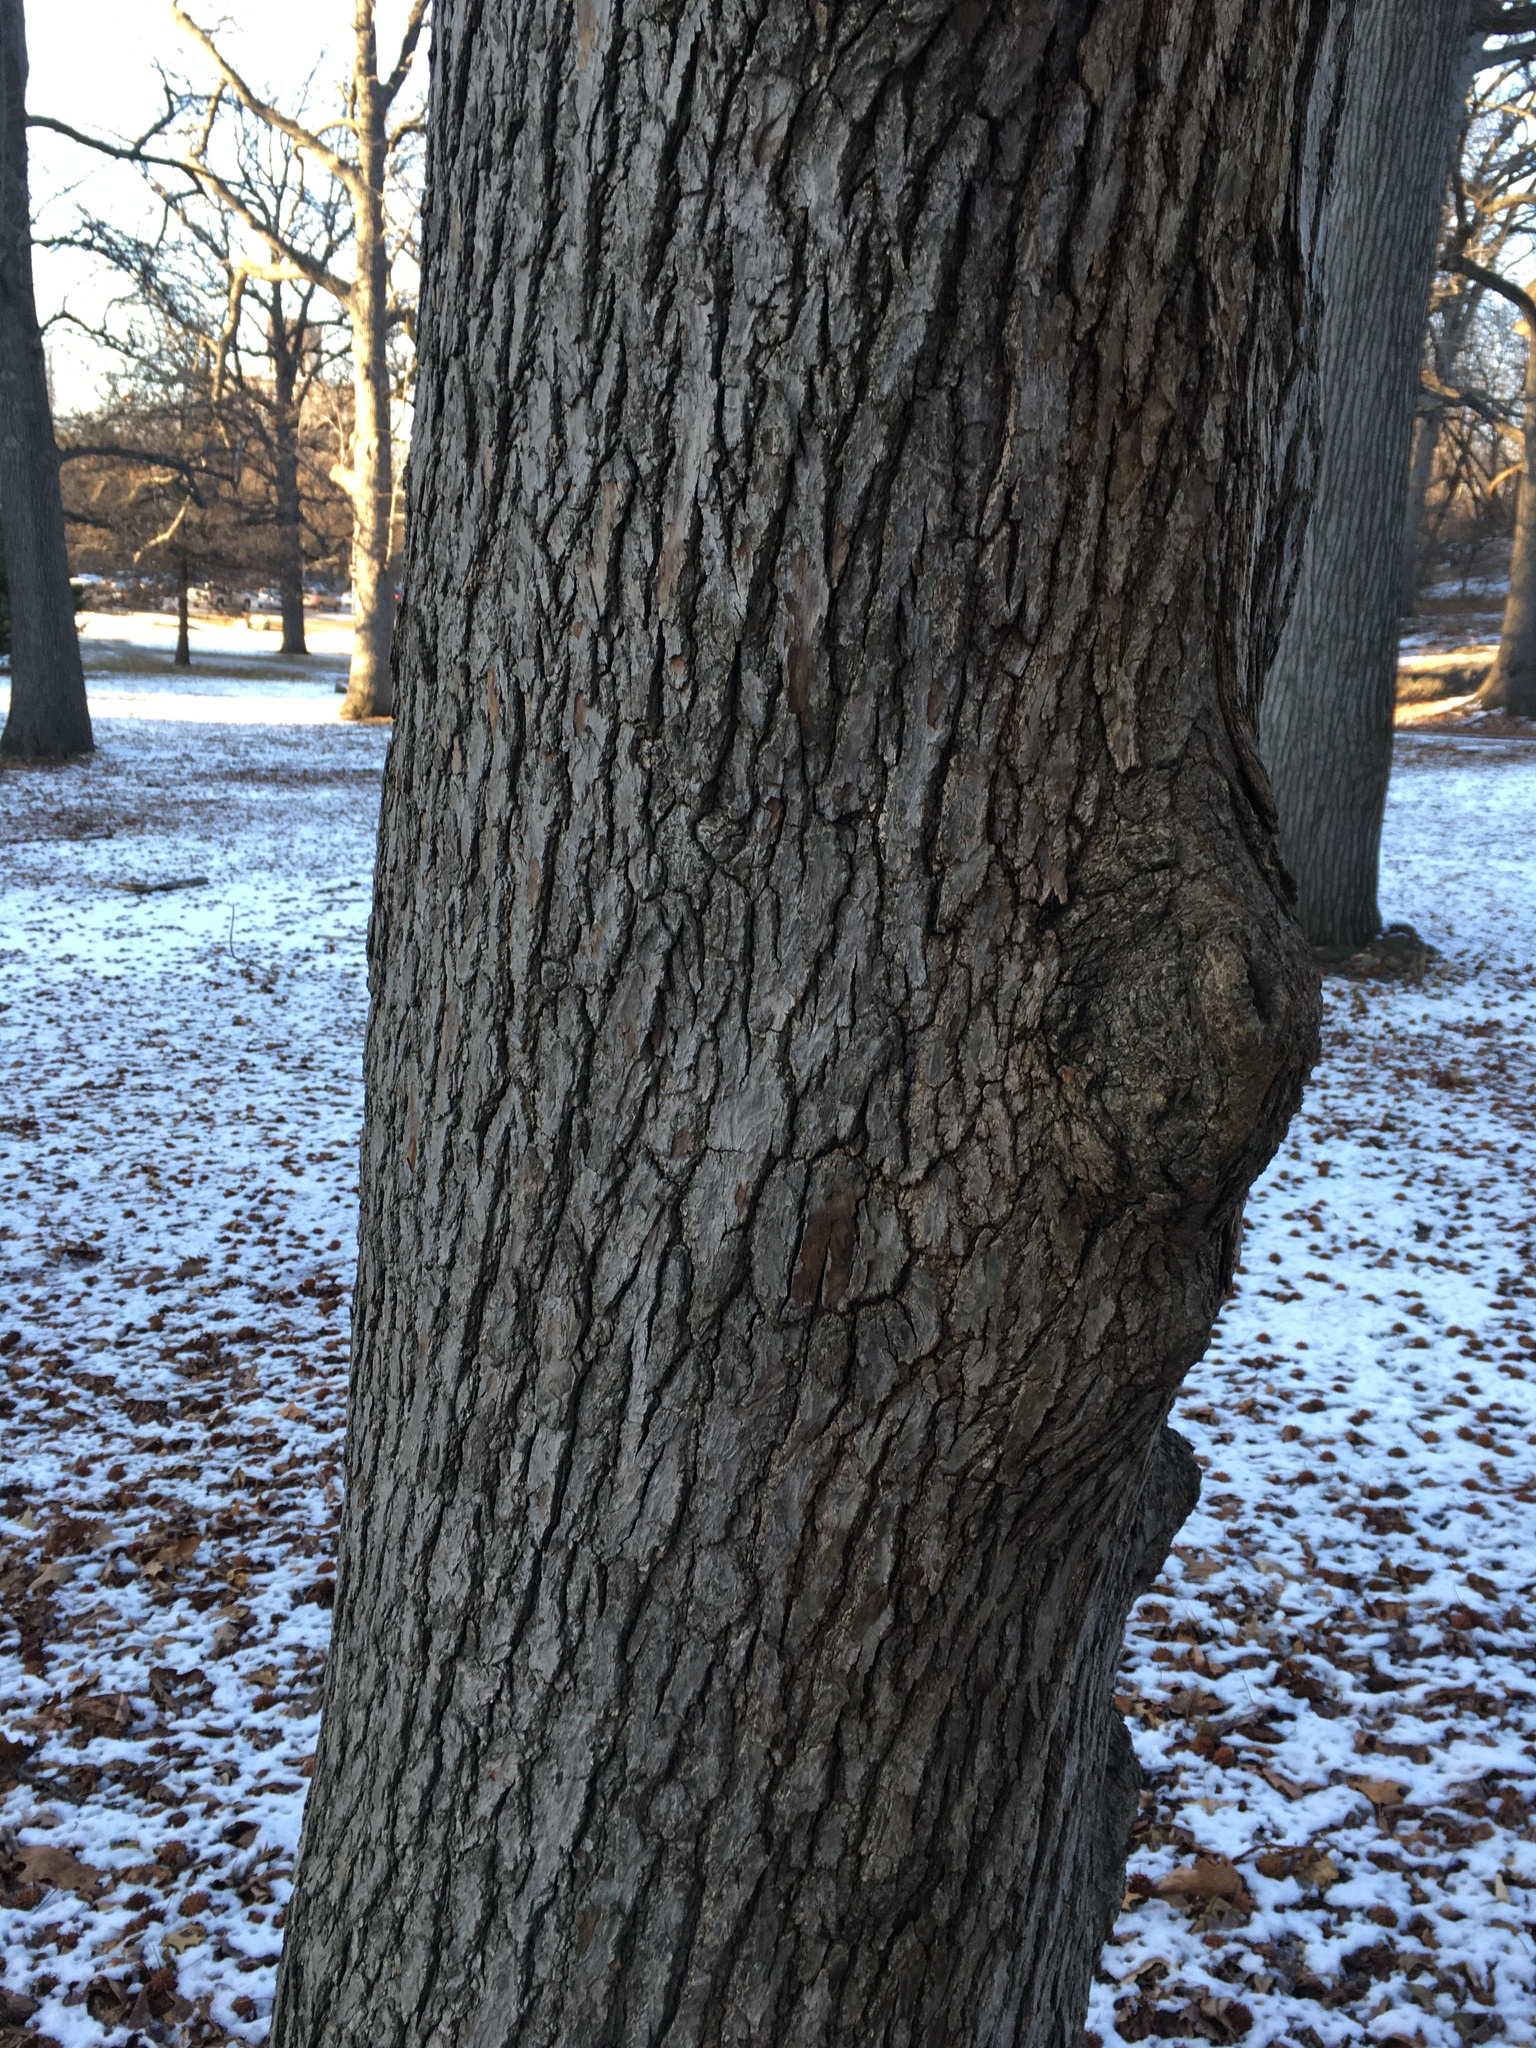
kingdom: Plantae
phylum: Tracheophyta
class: Magnoliopsida
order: Saxifragales
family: Altingiaceae
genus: Liquidambar
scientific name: Liquidambar styraciflua
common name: Sweet gum
